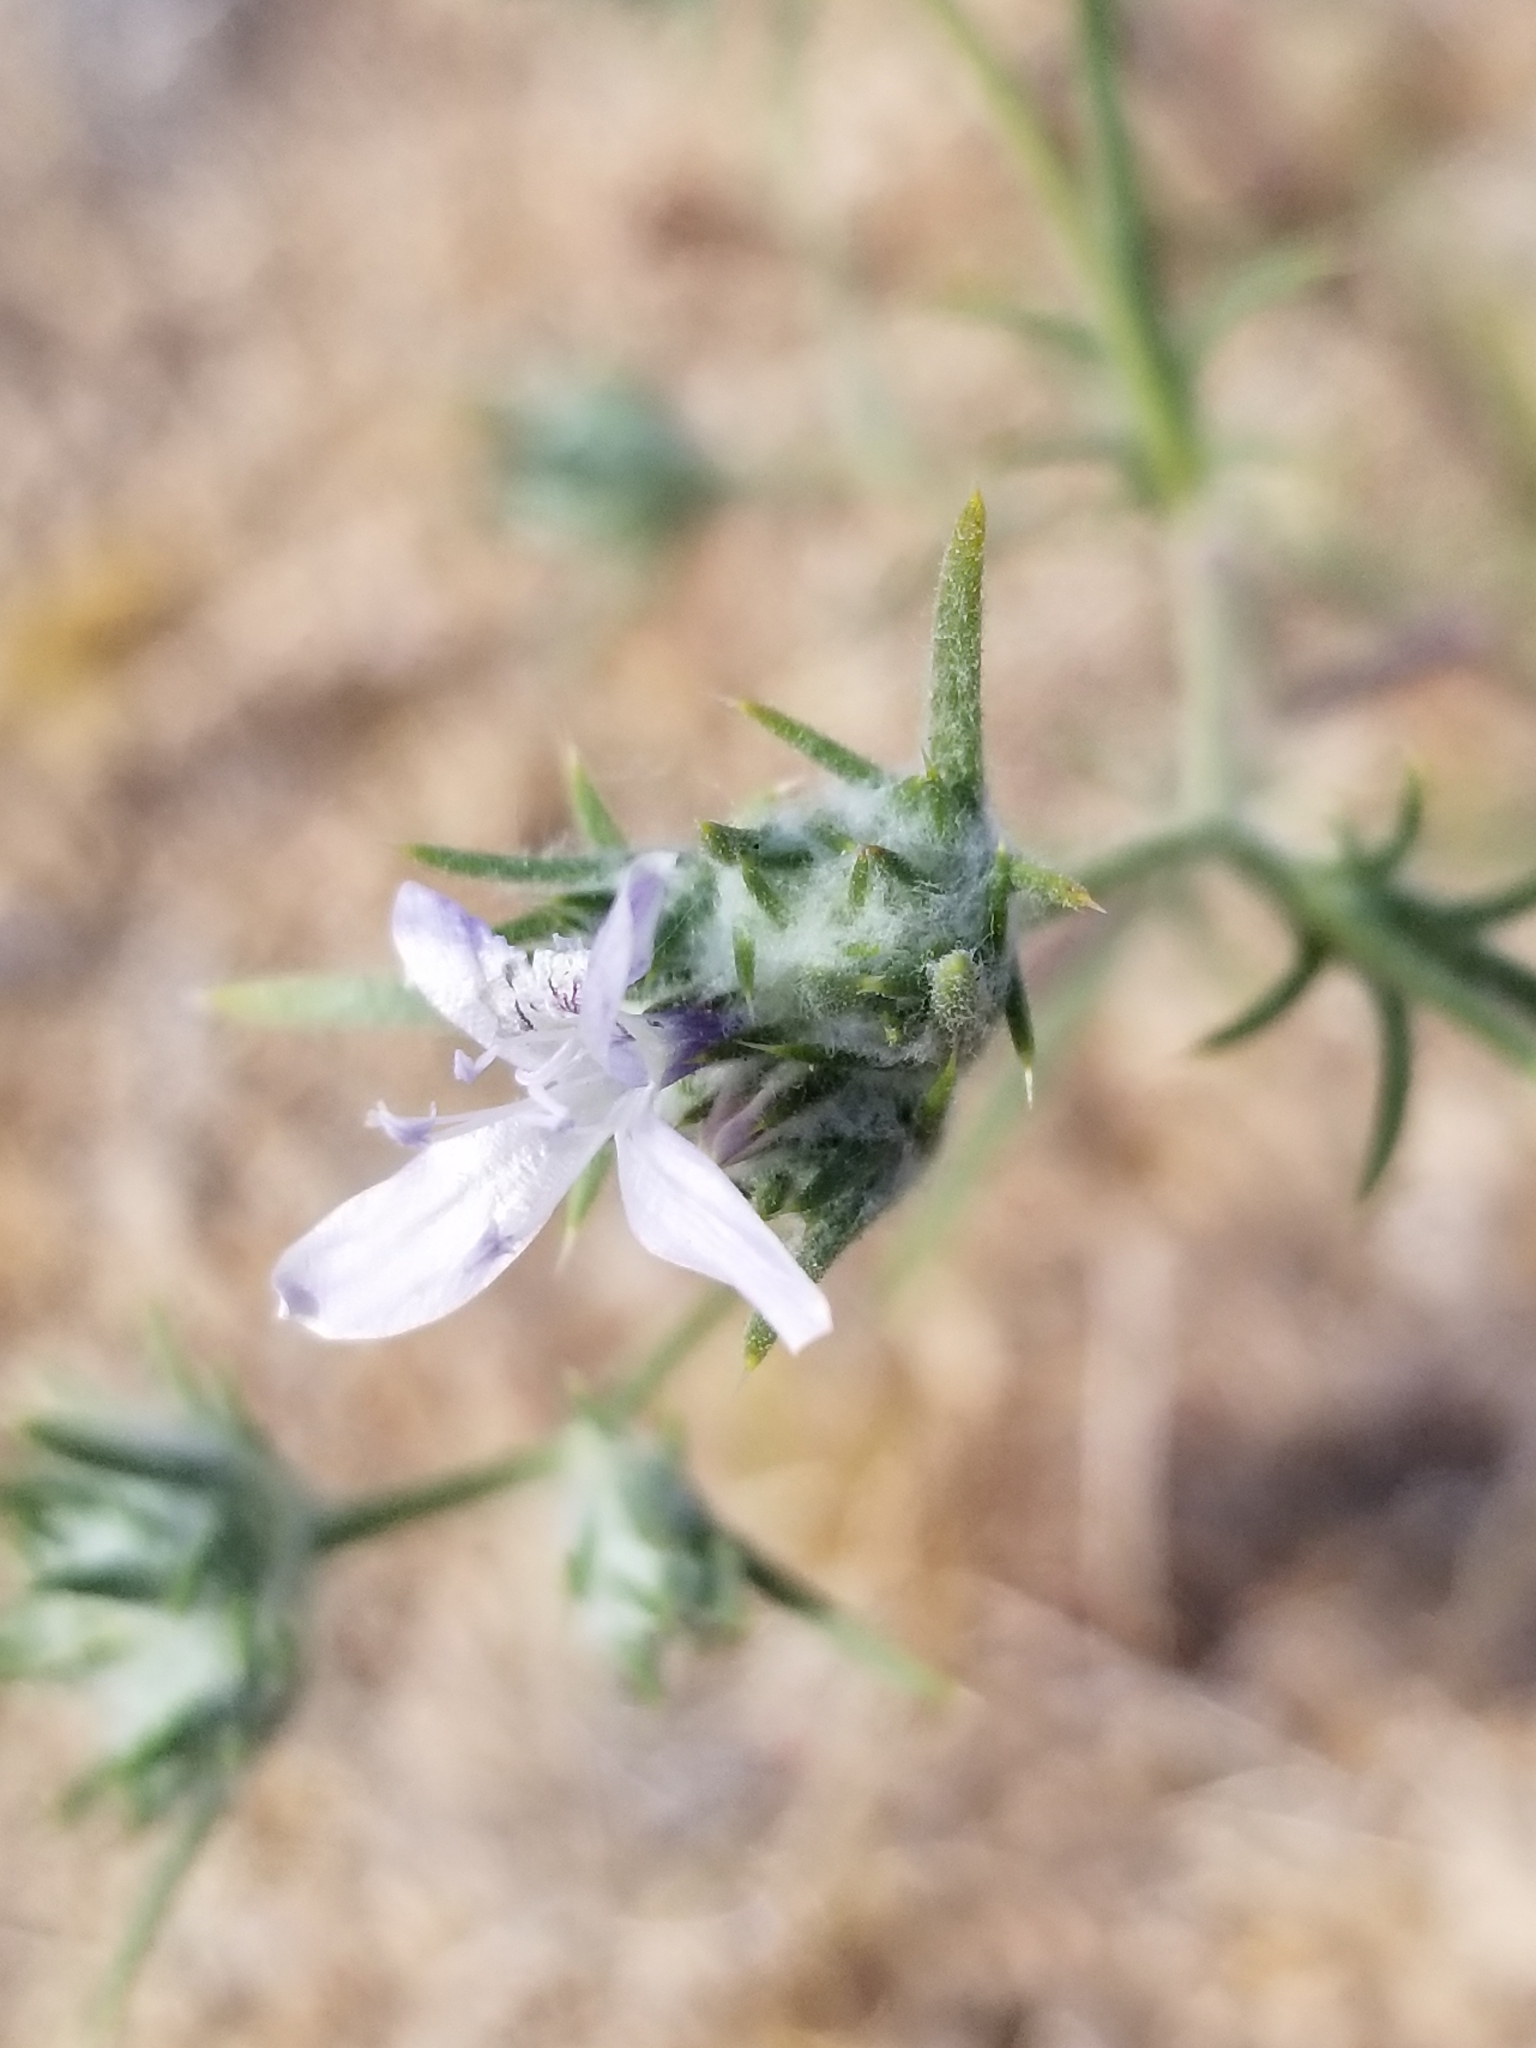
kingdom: Plantae
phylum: Tracheophyta
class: Magnoliopsida
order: Ericales
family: Polemoniaceae
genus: Eriastrum
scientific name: Eriastrum eremicum
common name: Desert eriastrum
